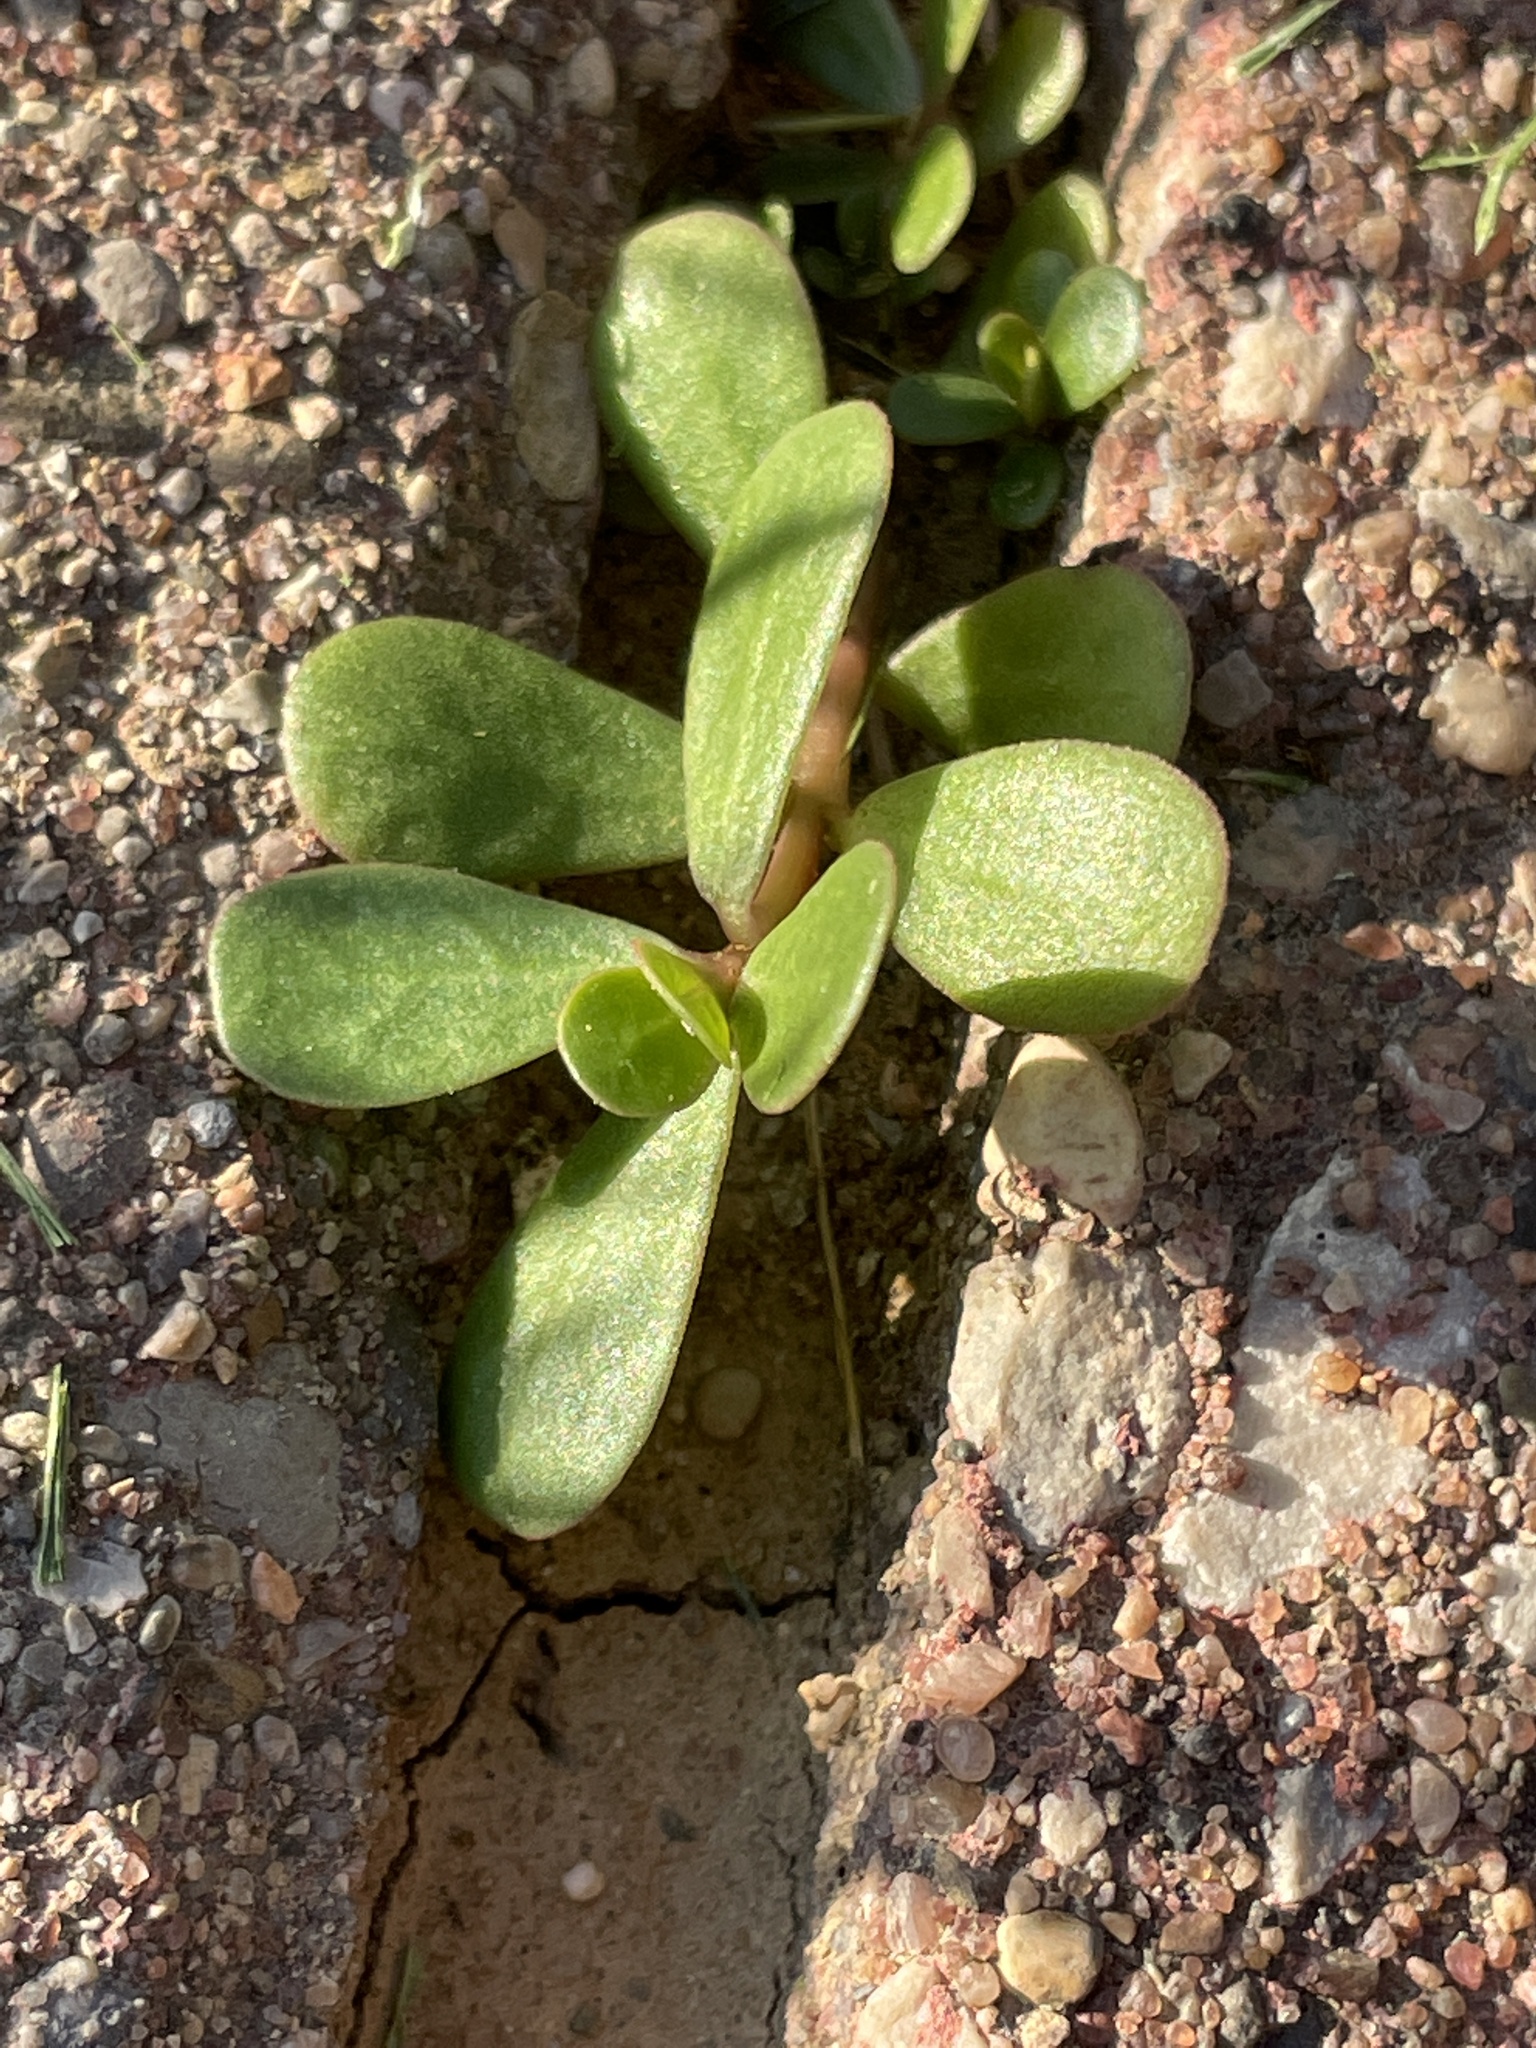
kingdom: Plantae
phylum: Tracheophyta
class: Magnoliopsida
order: Caryophyllales
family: Portulacaceae
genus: Portulaca
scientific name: Portulaca oleracea
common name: Common purslane
